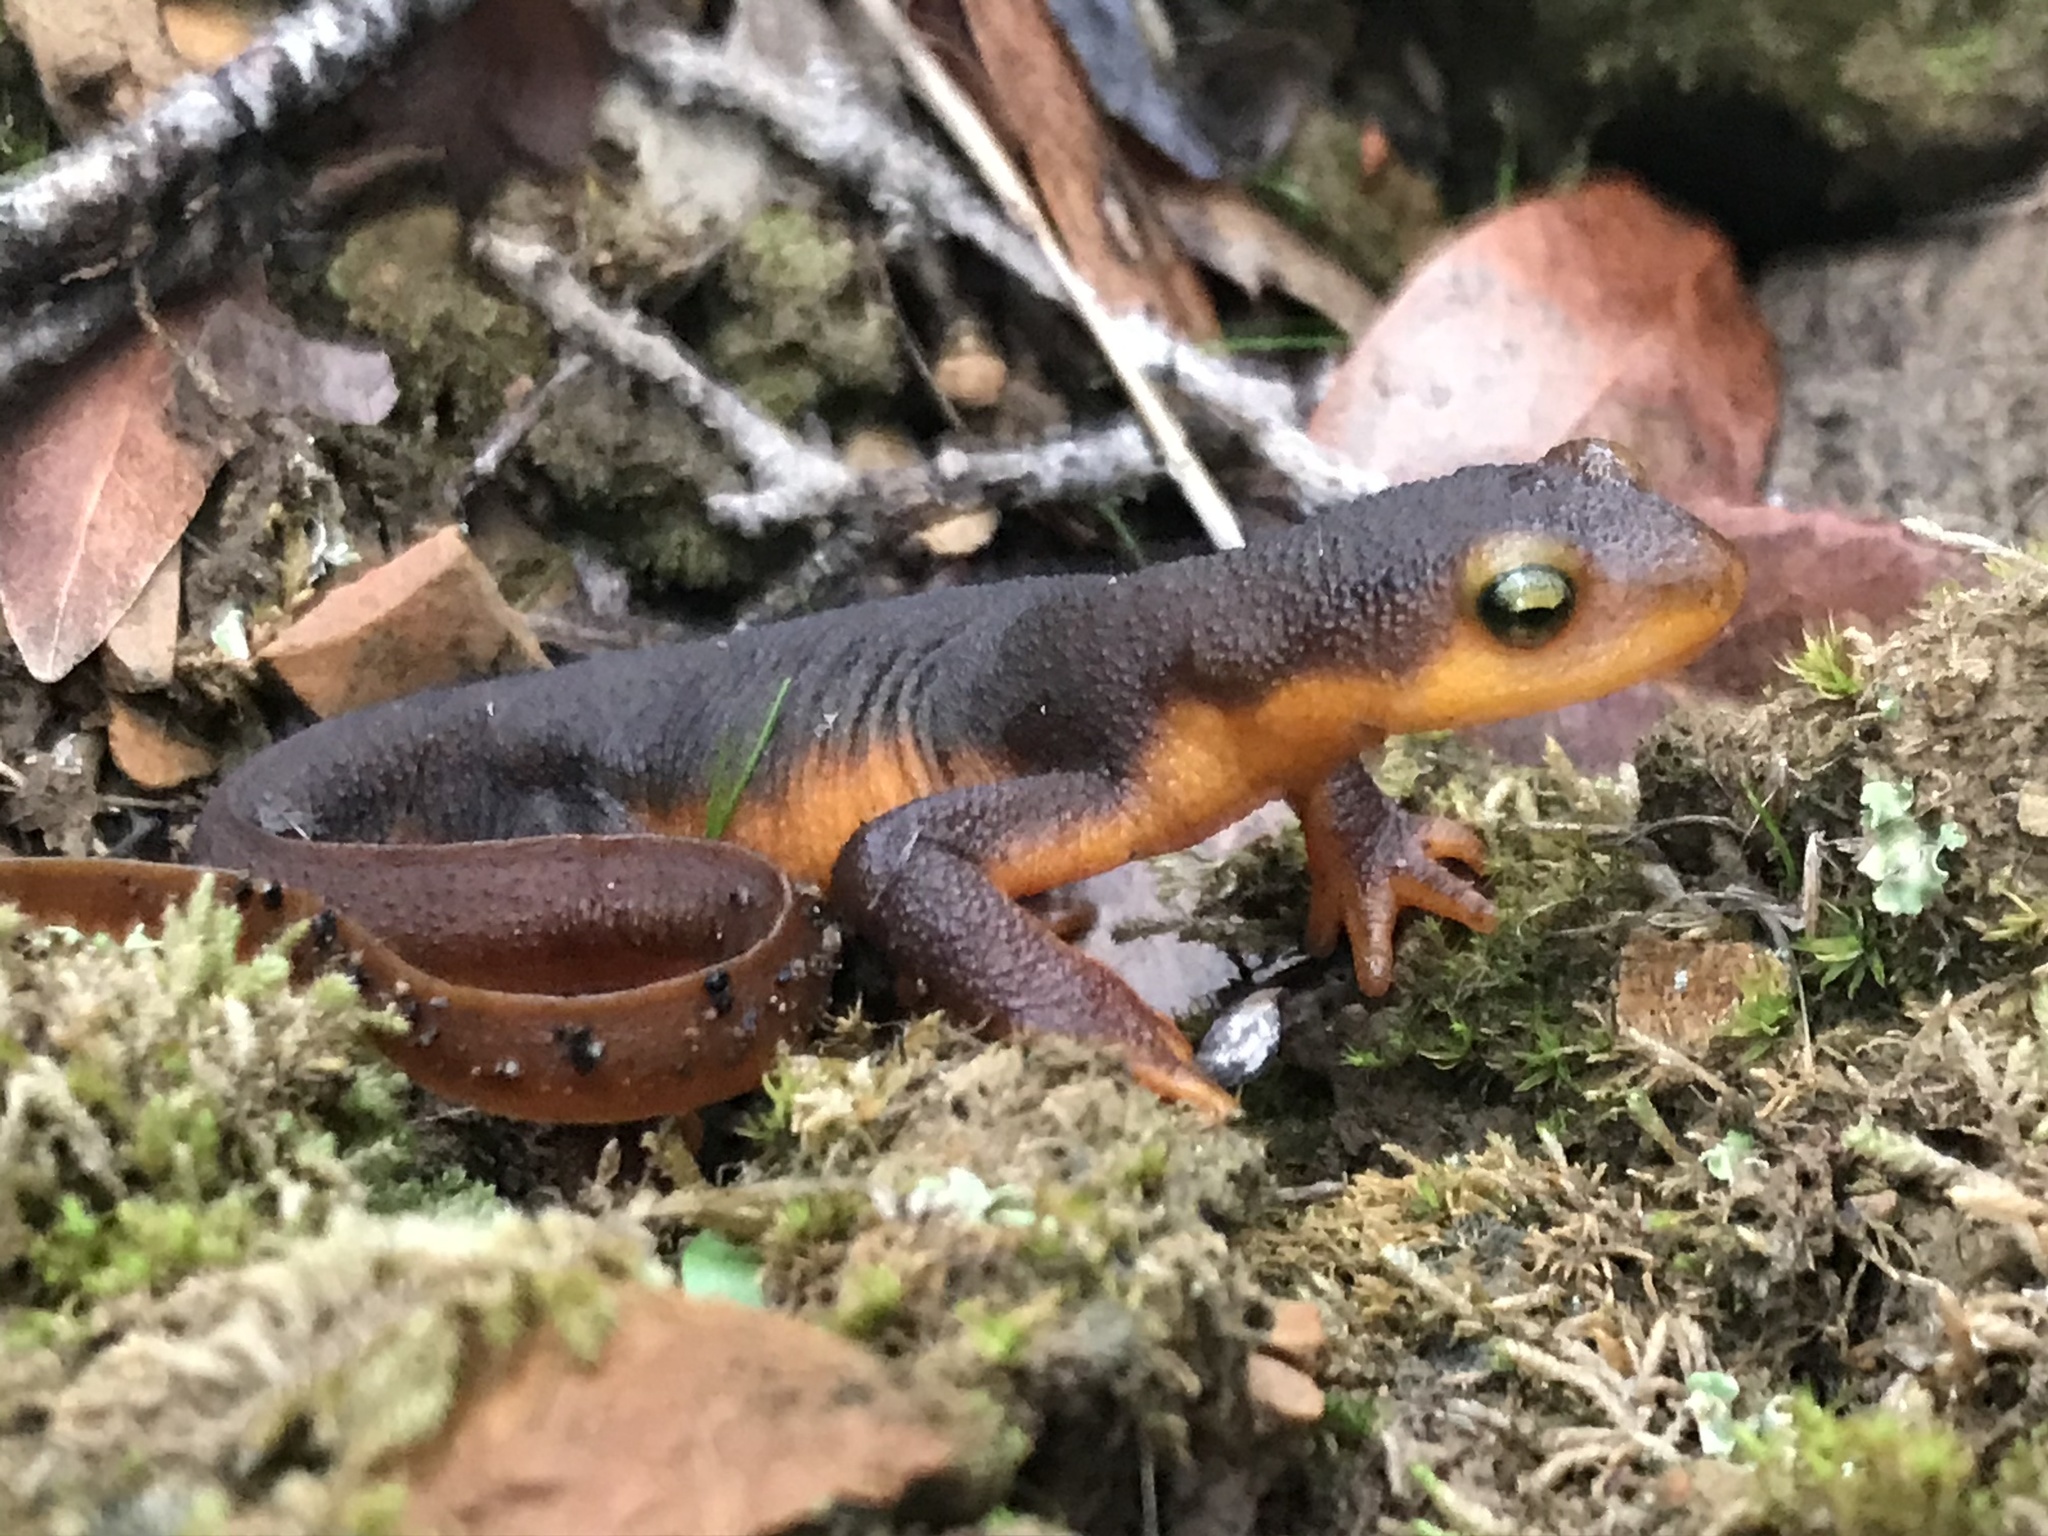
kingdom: Animalia
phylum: Chordata
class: Amphibia
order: Caudata
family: Salamandridae
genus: Taricha
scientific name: Taricha torosa
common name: California newt
